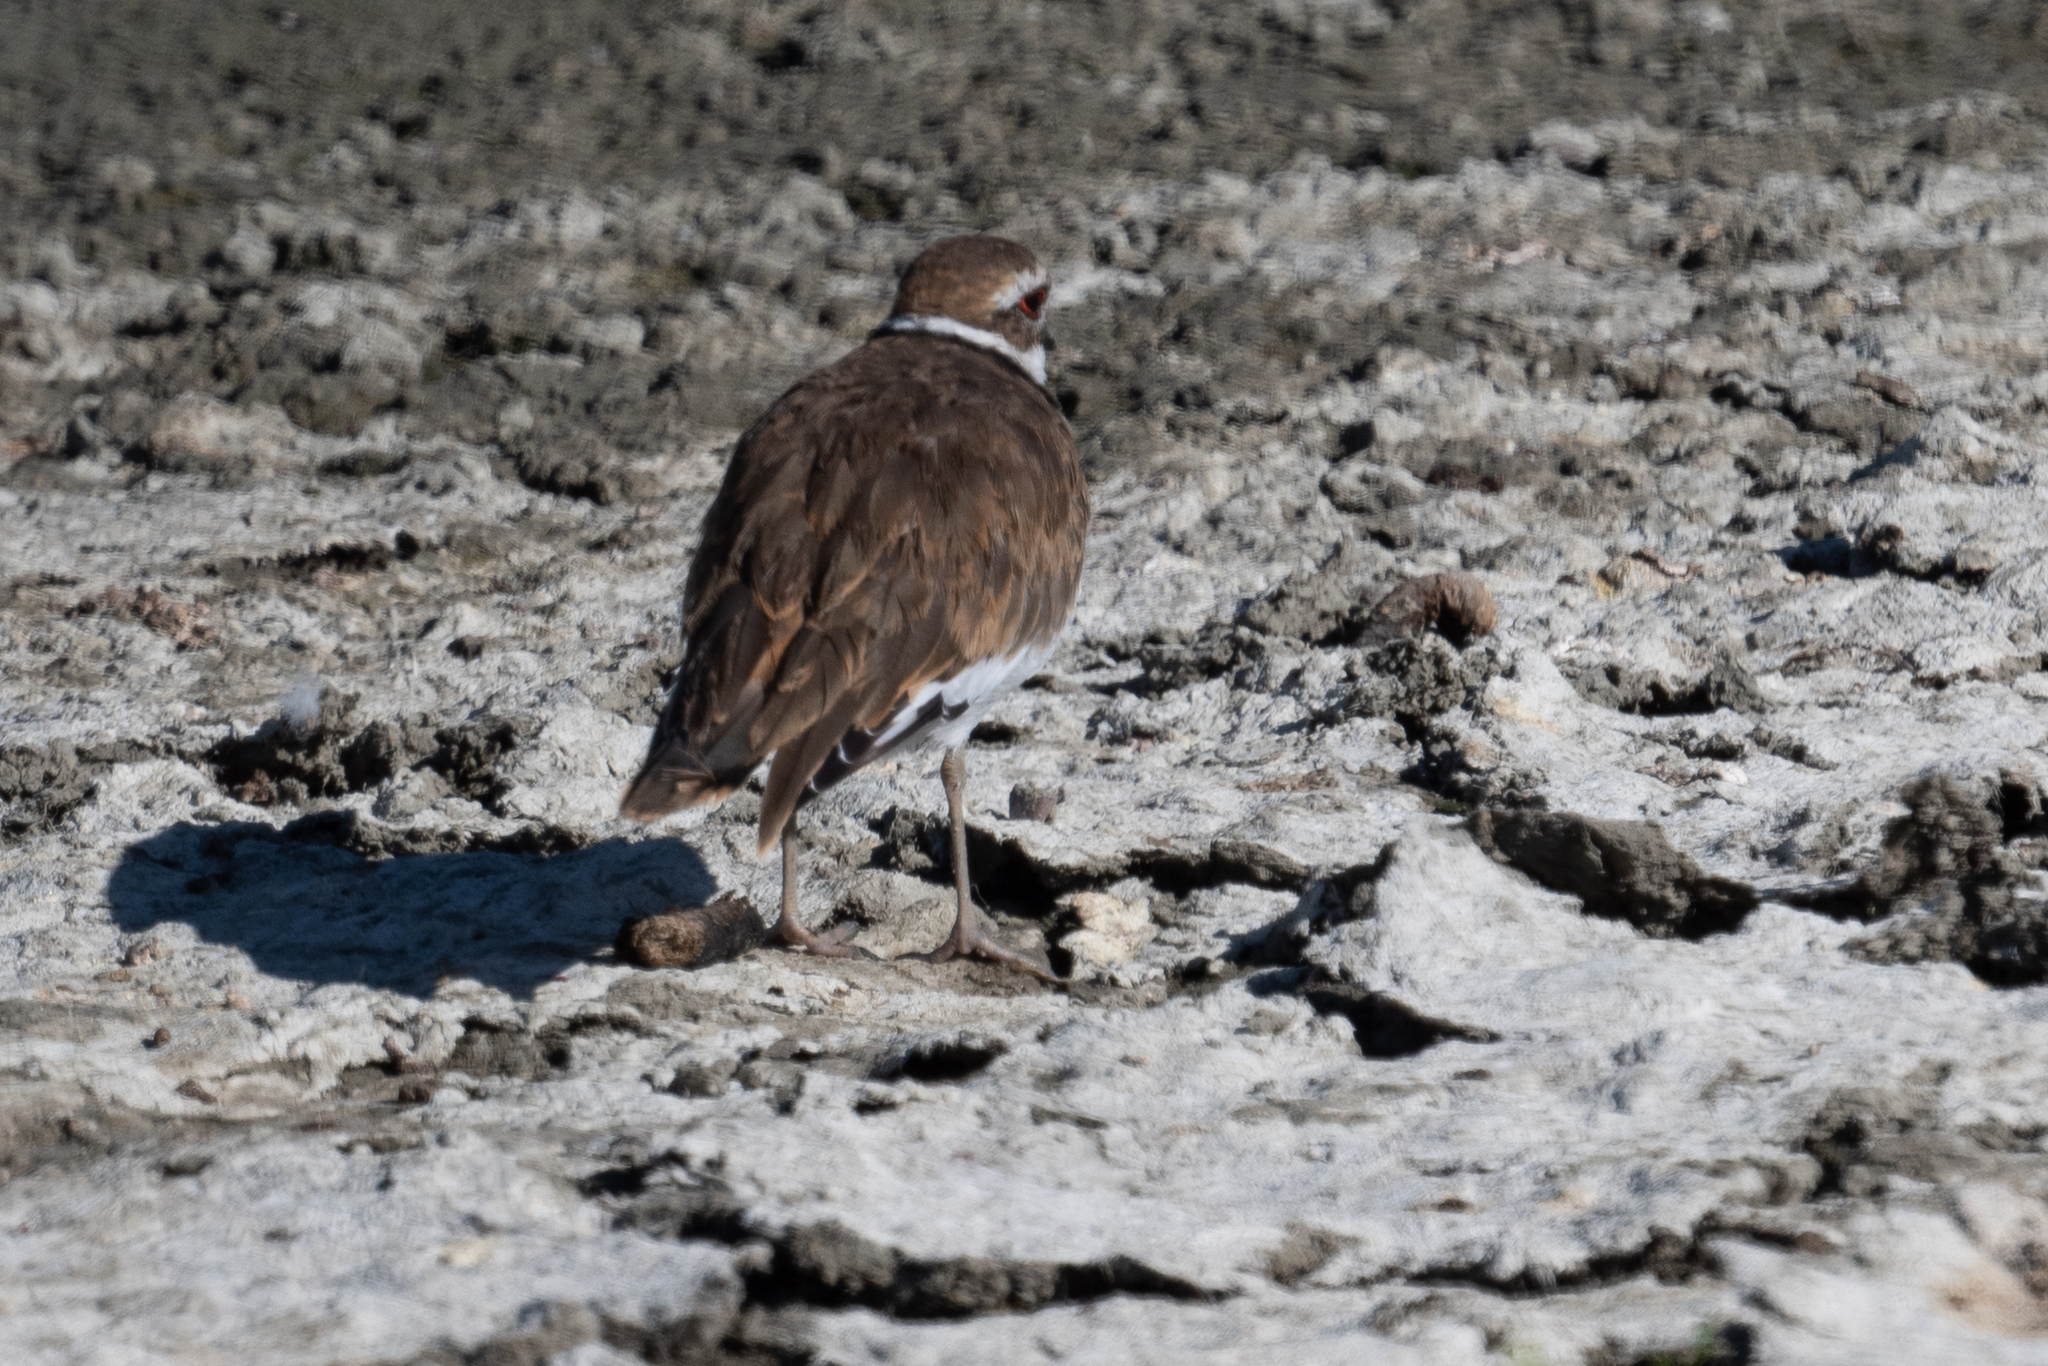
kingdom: Animalia
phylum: Chordata
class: Aves
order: Charadriiformes
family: Charadriidae
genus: Charadrius
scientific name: Charadrius vociferus
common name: Killdeer
